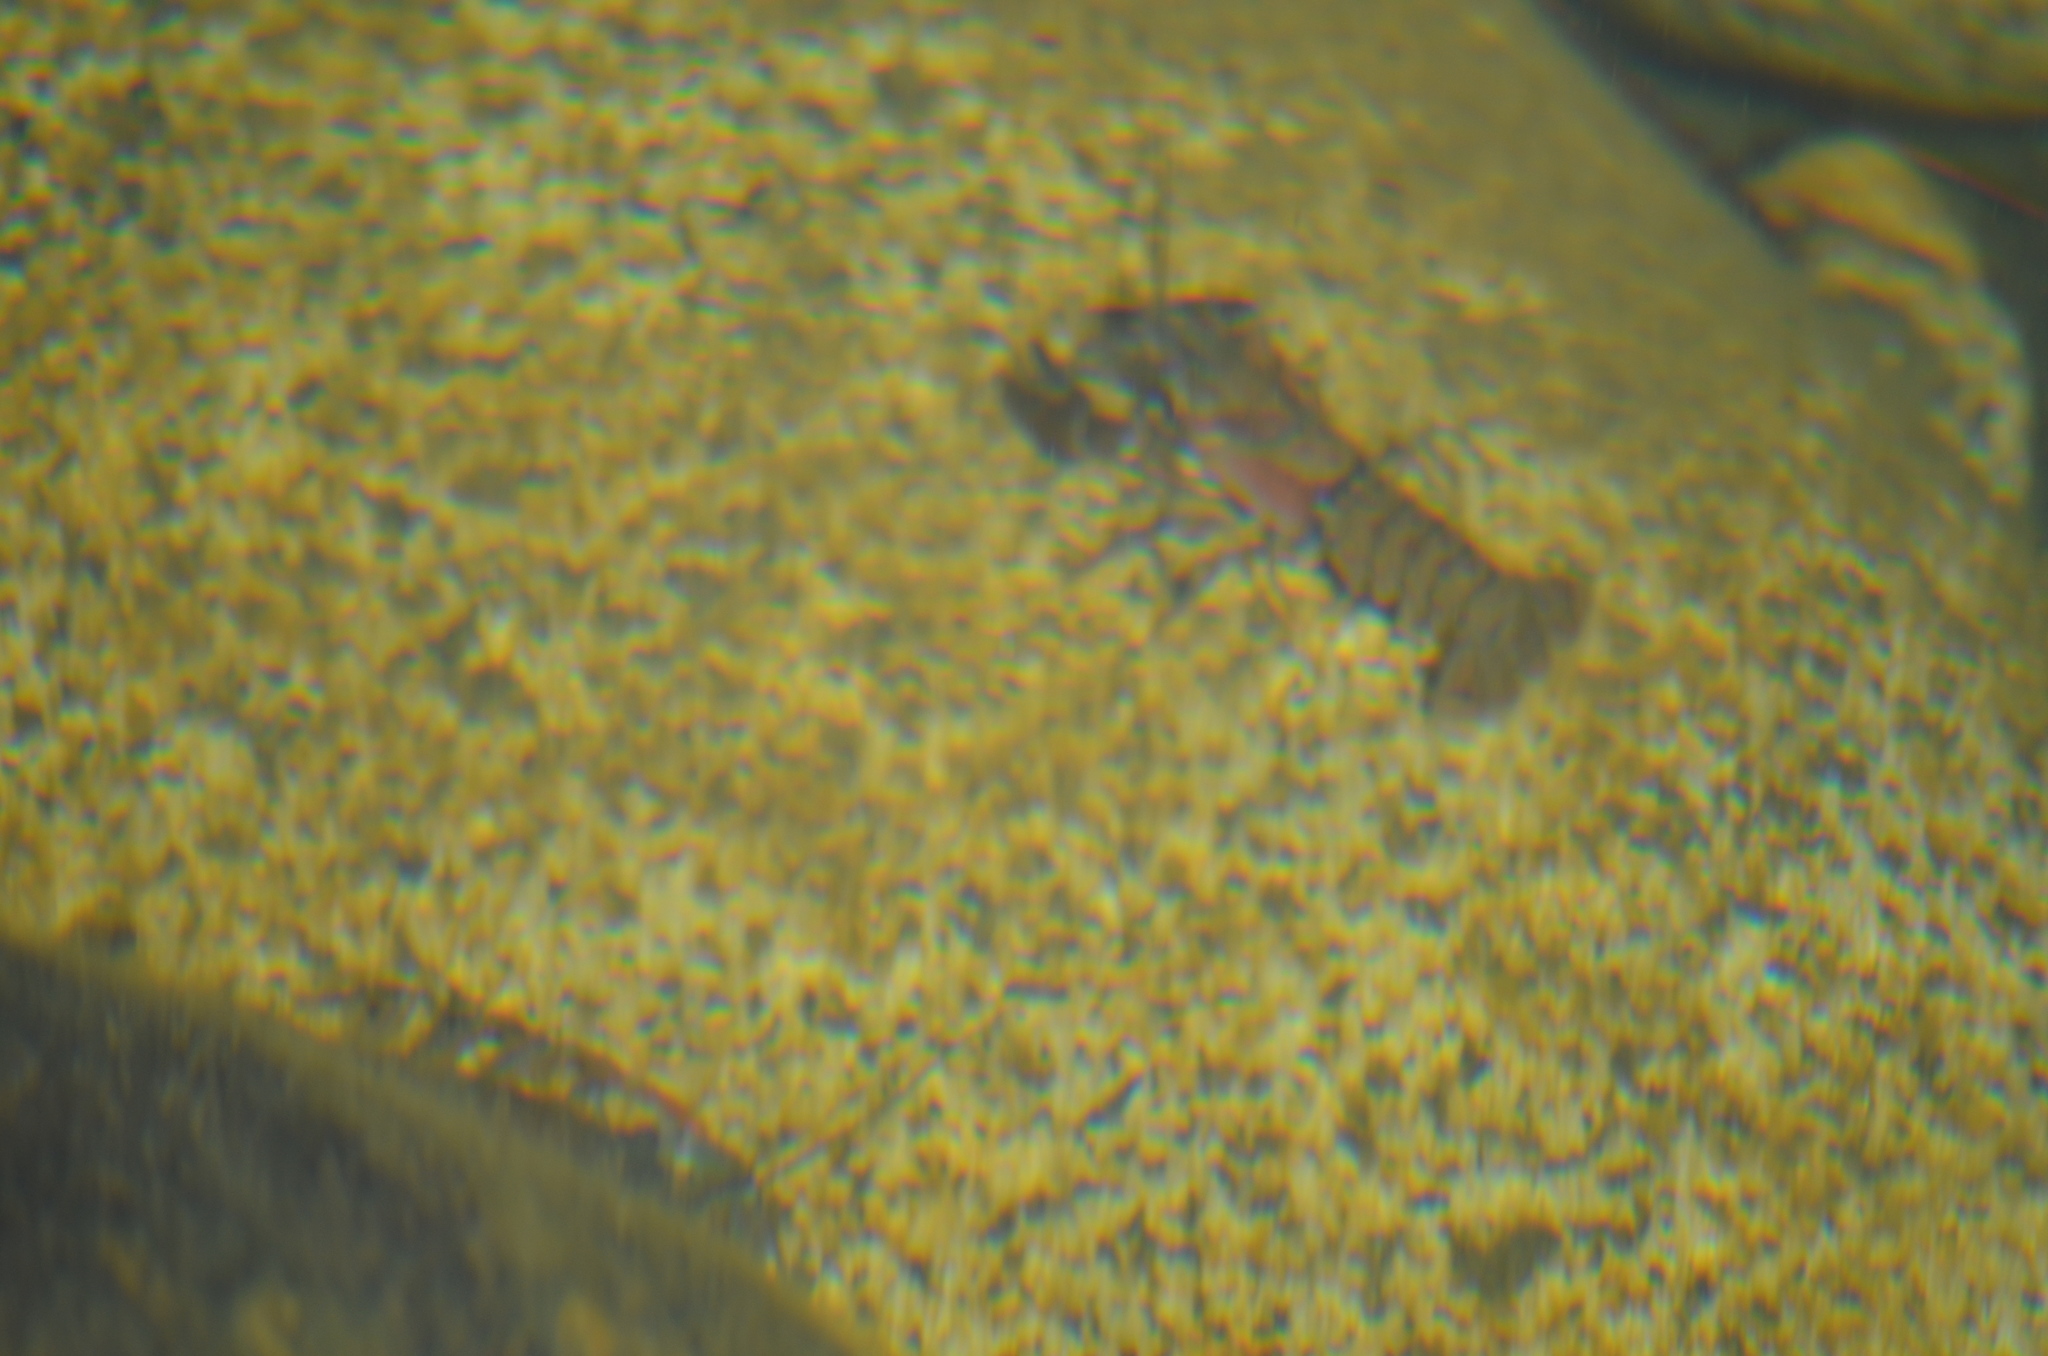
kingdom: Animalia
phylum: Arthropoda
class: Malacostraca
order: Decapoda
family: Astacidae
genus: Pacifastacus
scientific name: Pacifastacus leniusculus
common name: Signal crayfish
